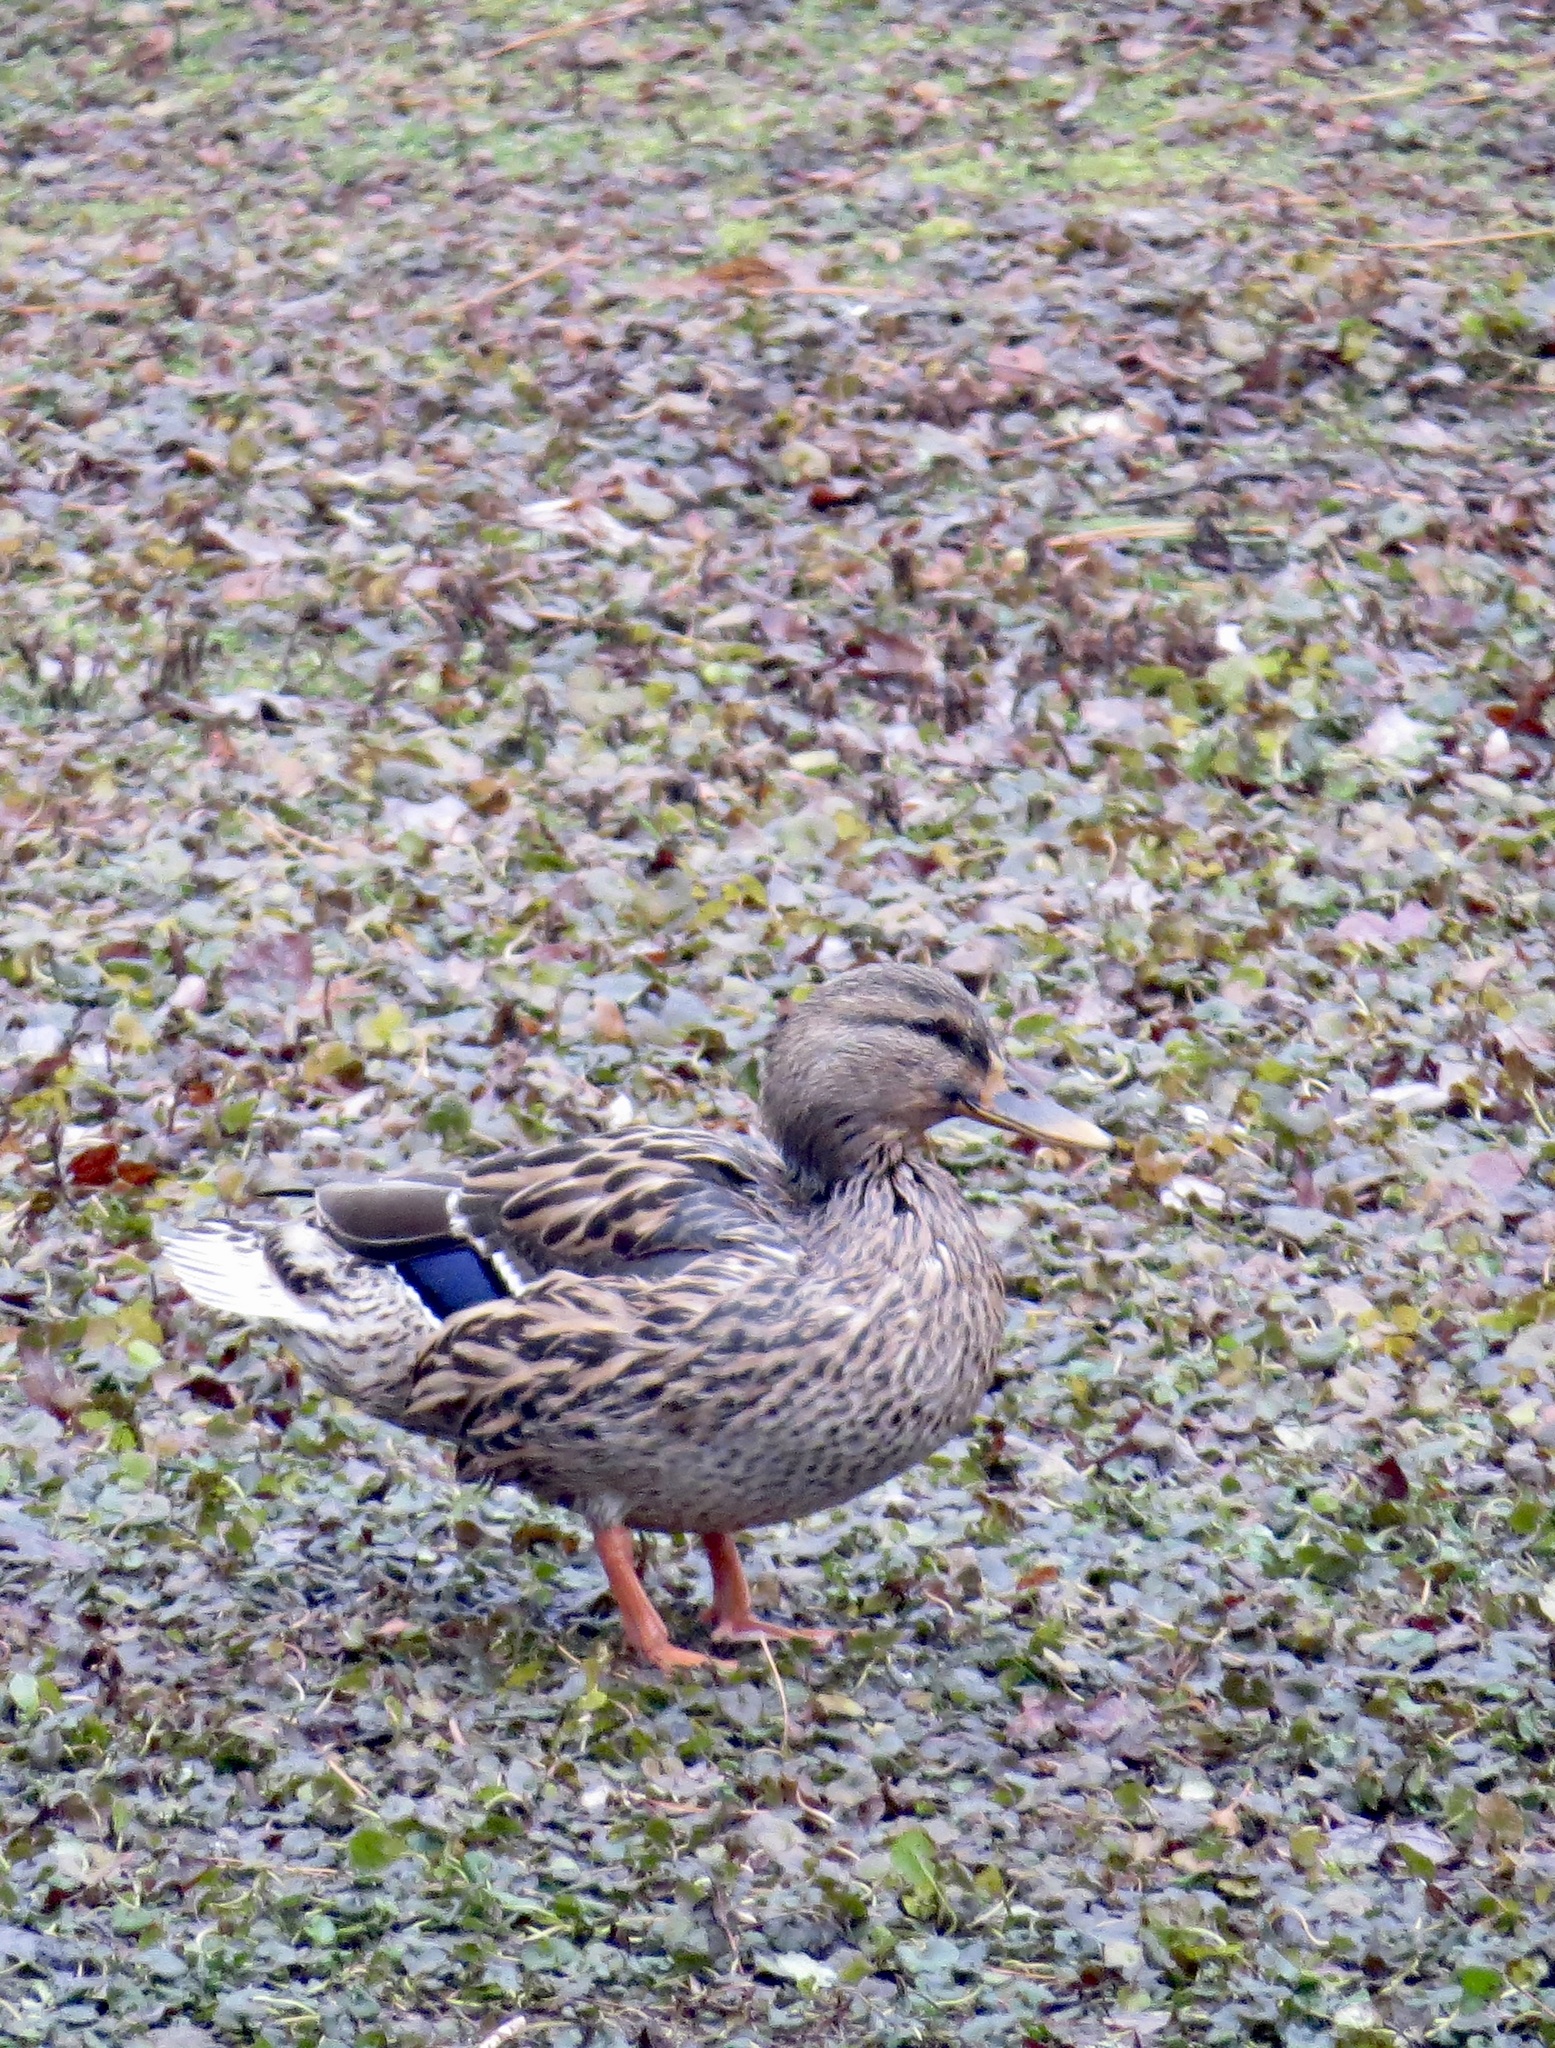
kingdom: Animalia
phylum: Chordata
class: Aves
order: Anseriformes
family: Anatidae
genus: Anas
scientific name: Anas platyrhynchos
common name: Mallard
